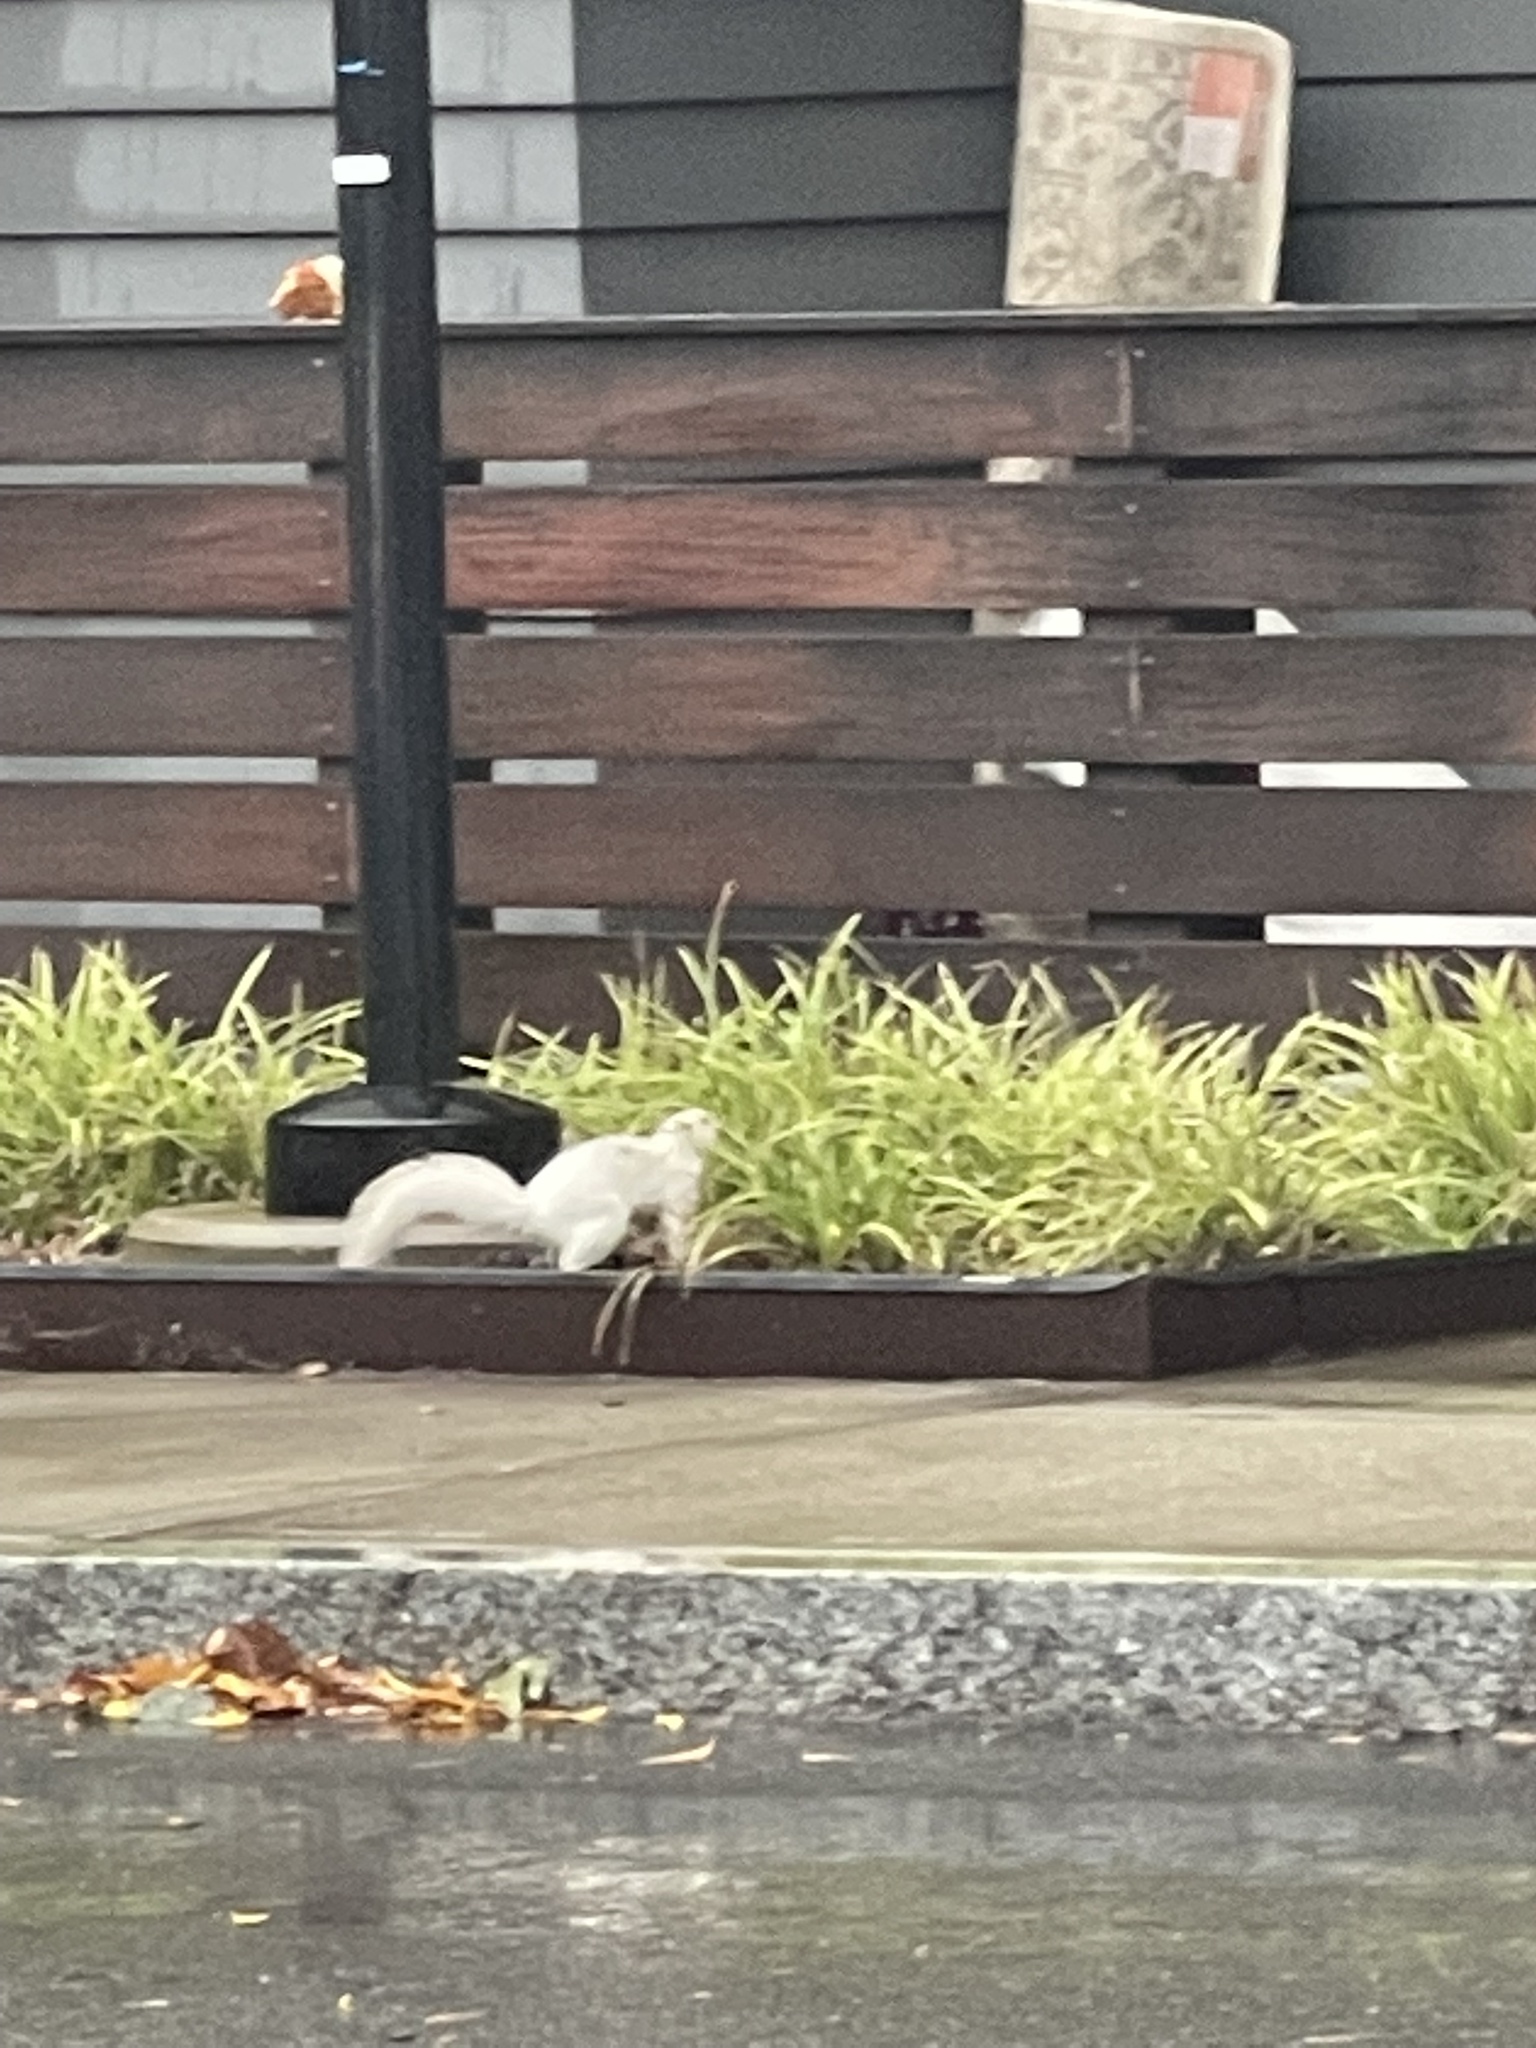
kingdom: Animalia
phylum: Chordata
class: Mammalia
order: Rodentia
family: Sciuridae
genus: Sciurus
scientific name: Sciurus carolinensis
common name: Eastern gray squirrel
